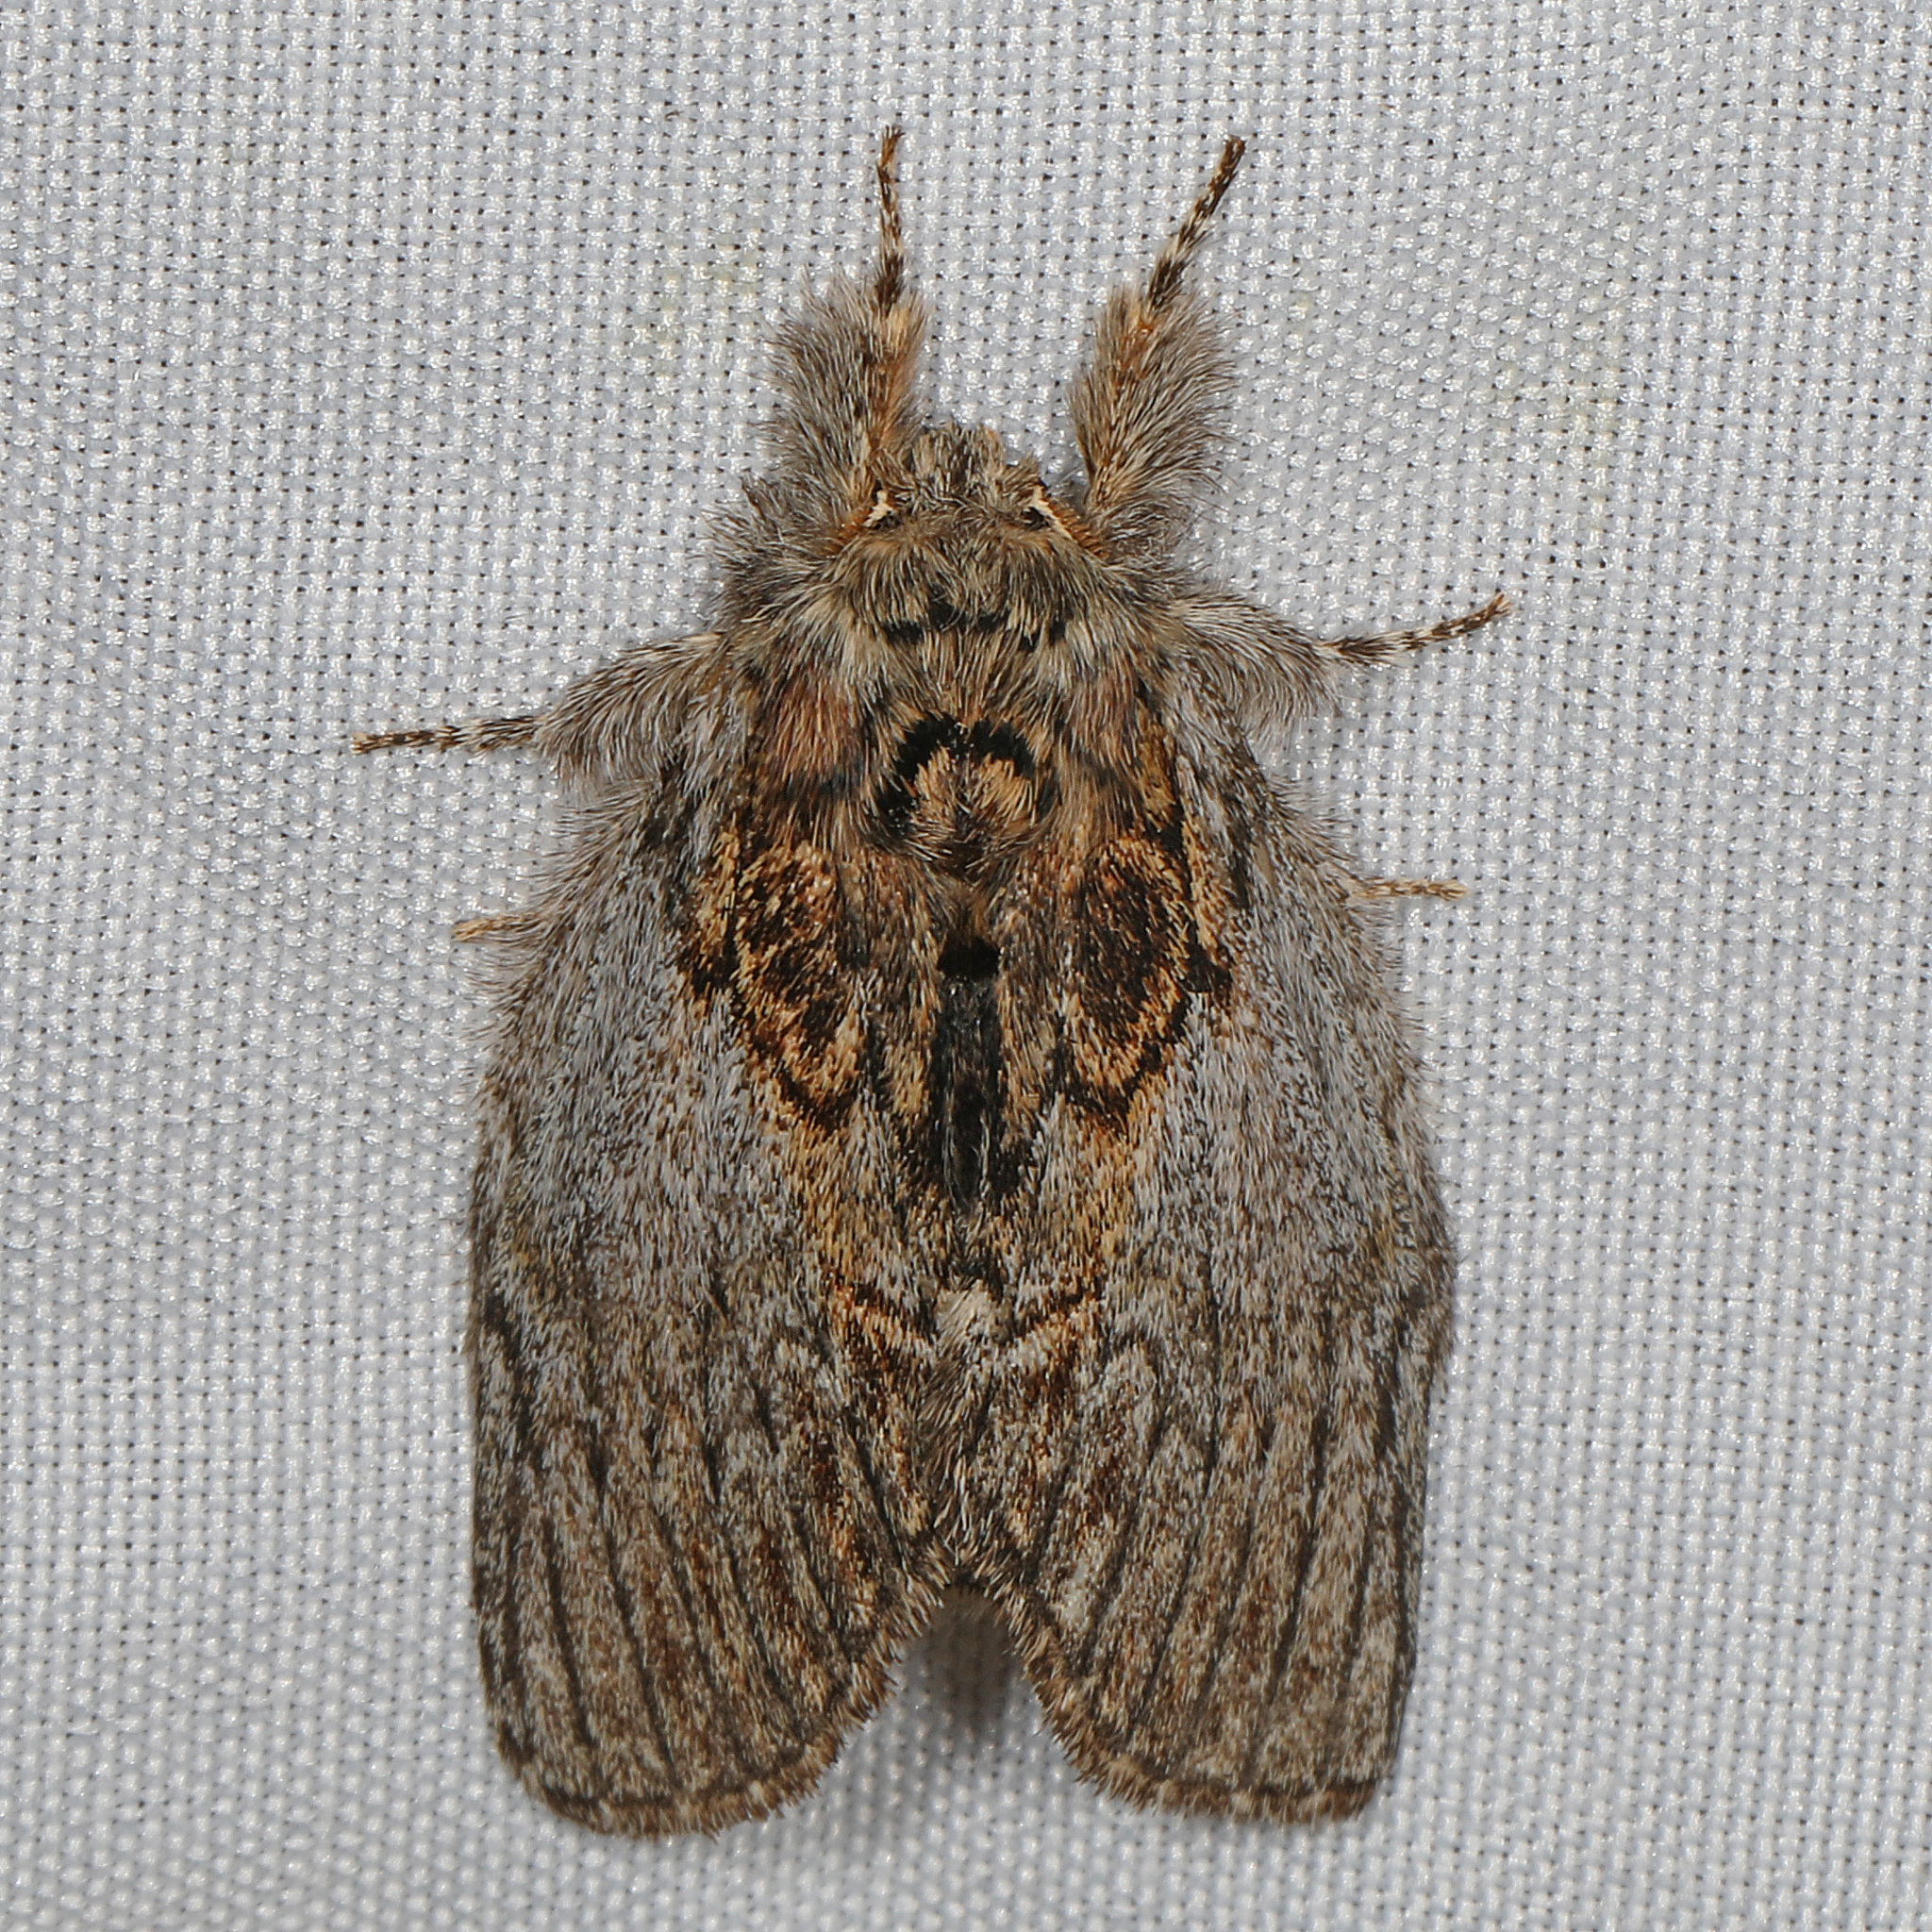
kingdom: Animalia
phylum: Arthropoda
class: Insecta
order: Lepidoptera
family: Notodontidae
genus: Peridea
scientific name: Peridea basitriens
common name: Oval-based prominent
